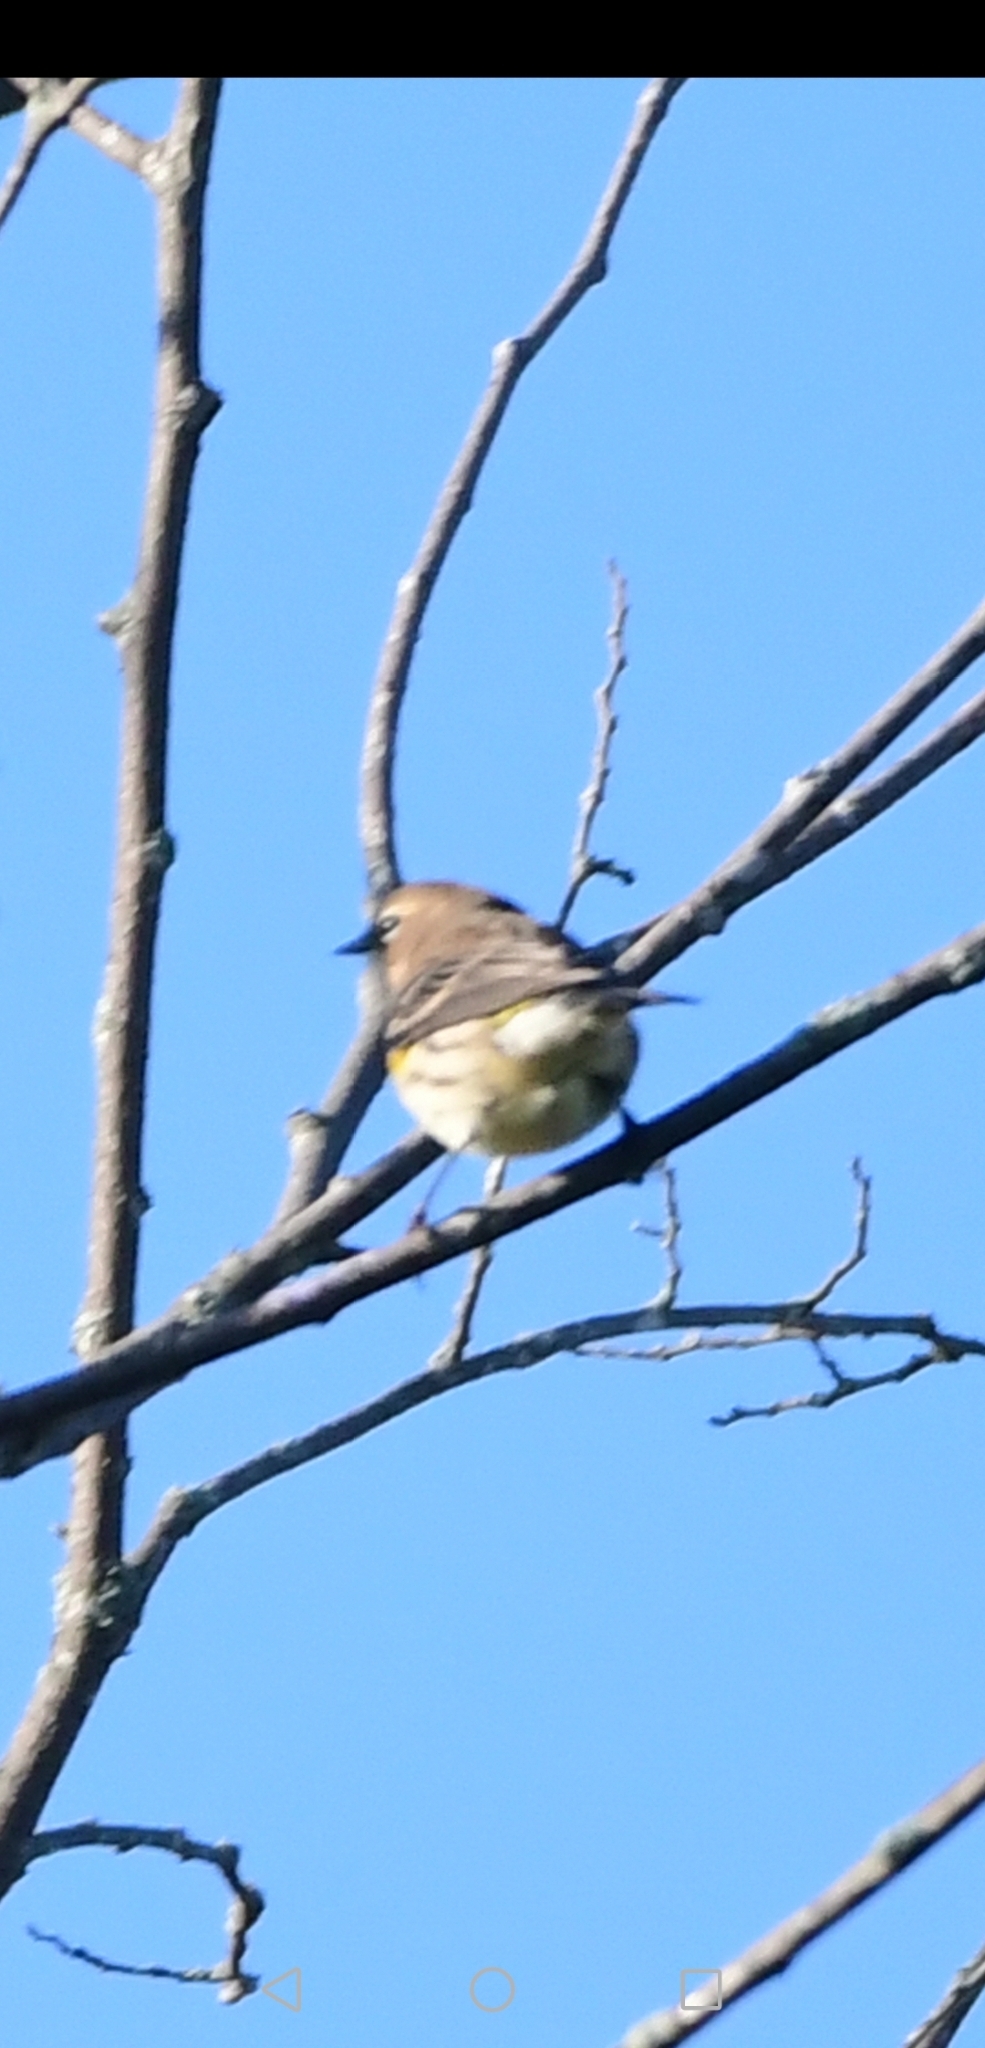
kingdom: Animalia
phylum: Chordata
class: Aves
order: Passeriformes
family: Parulidae
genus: Setophaga
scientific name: Setophaga coronata
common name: Myrtle warbler
